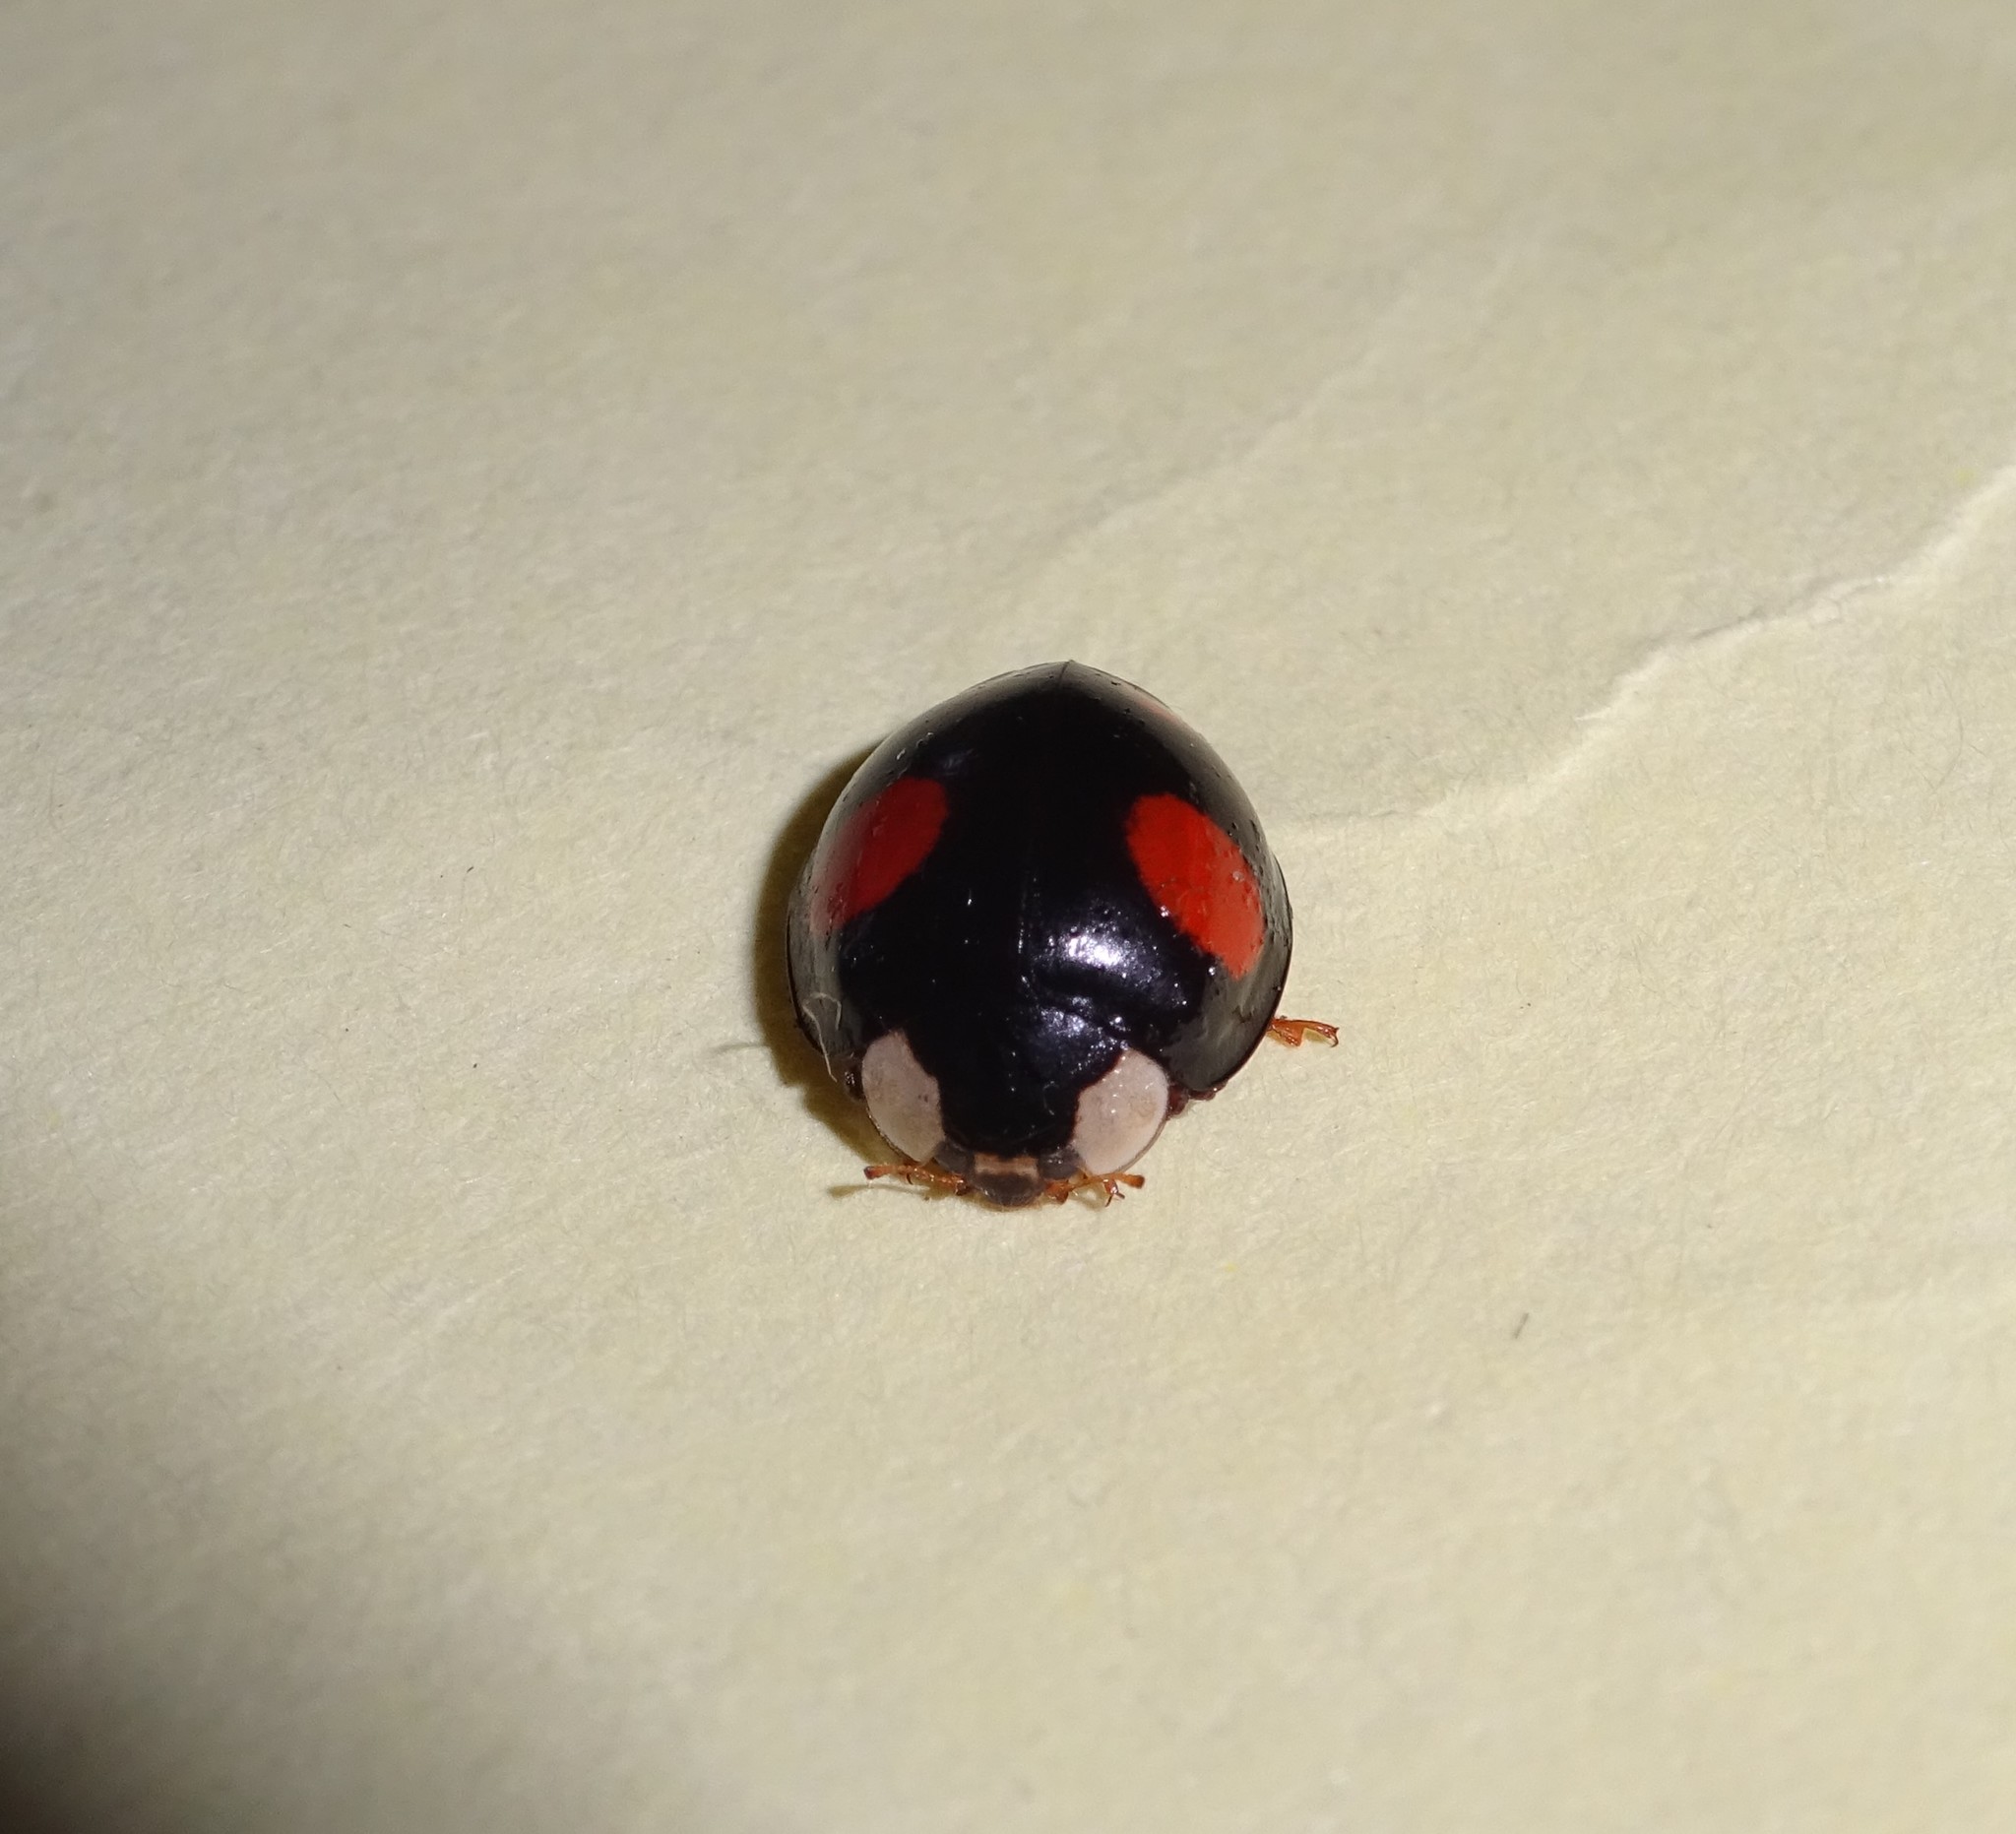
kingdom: Animalia
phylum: Arthropoda
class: Insecta
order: Coleoptera
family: Coccinellidae
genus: Harmonia
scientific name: Harmonia axyridis
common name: Harlequin ladybird
